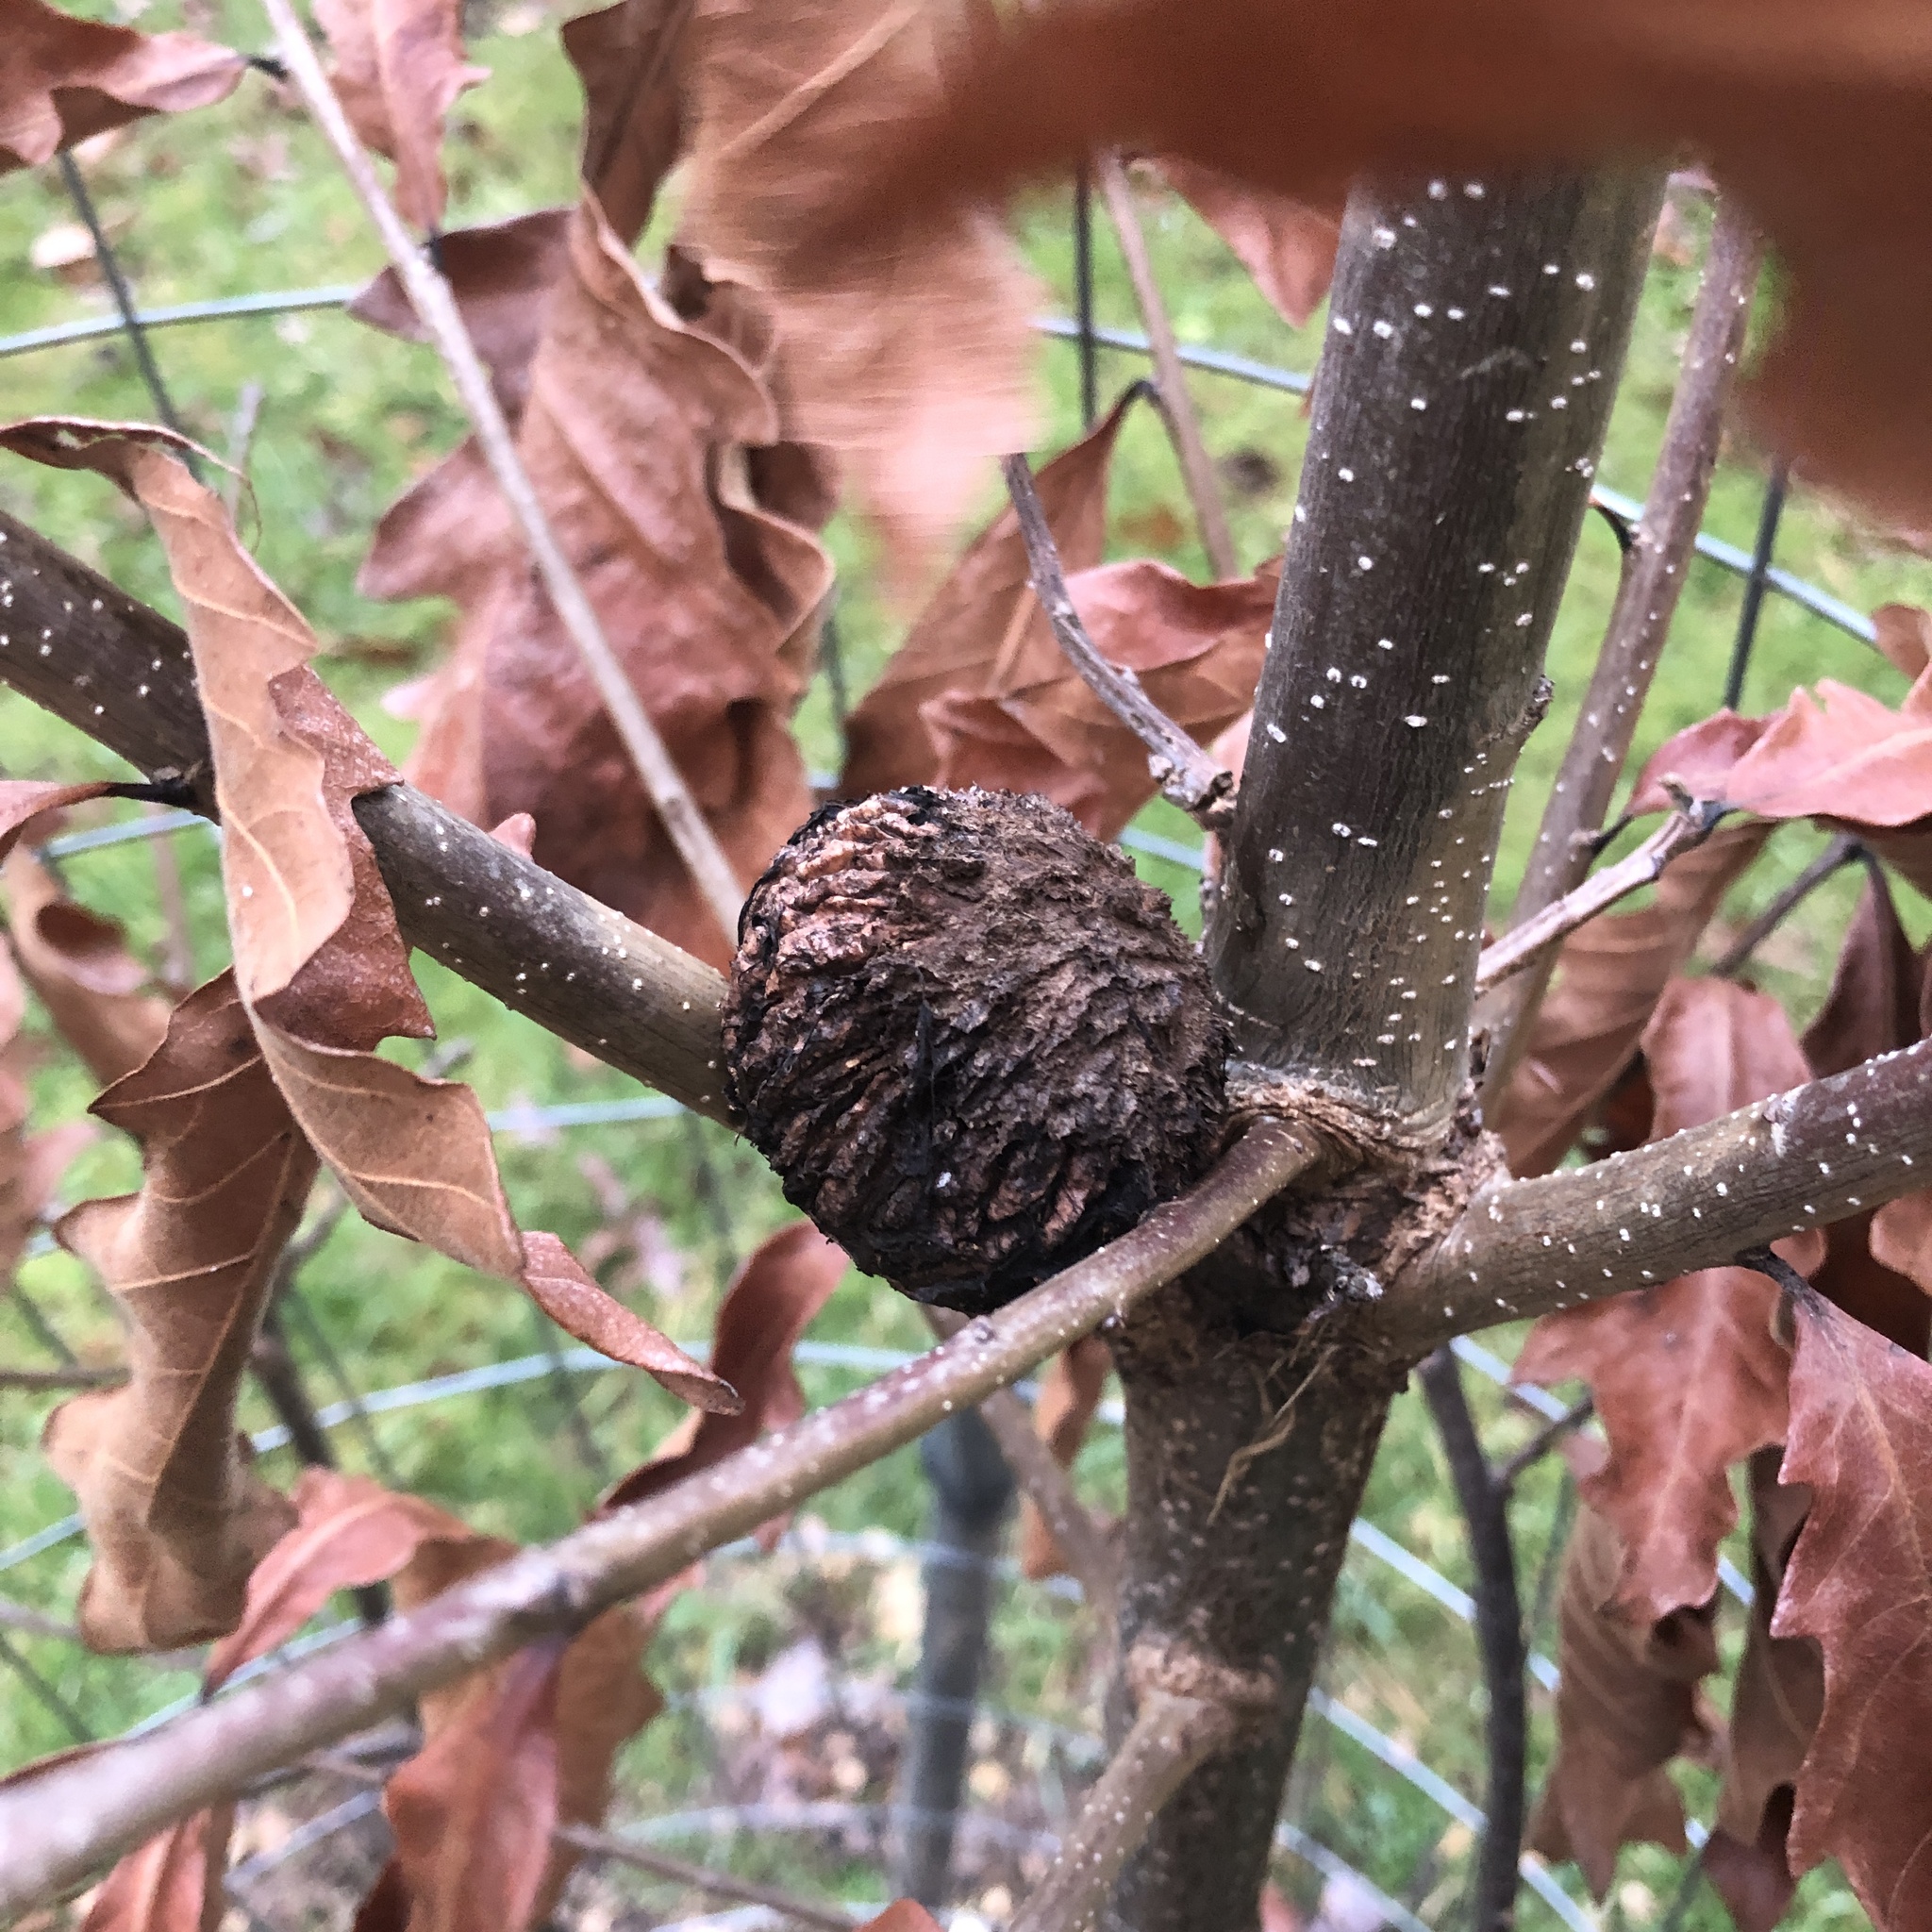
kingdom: Plantae
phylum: Tracheophyta
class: Magnoliopsida
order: Fagales
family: Juglandaceae
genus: Juglans
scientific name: Juglans nigra
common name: Black walnut
